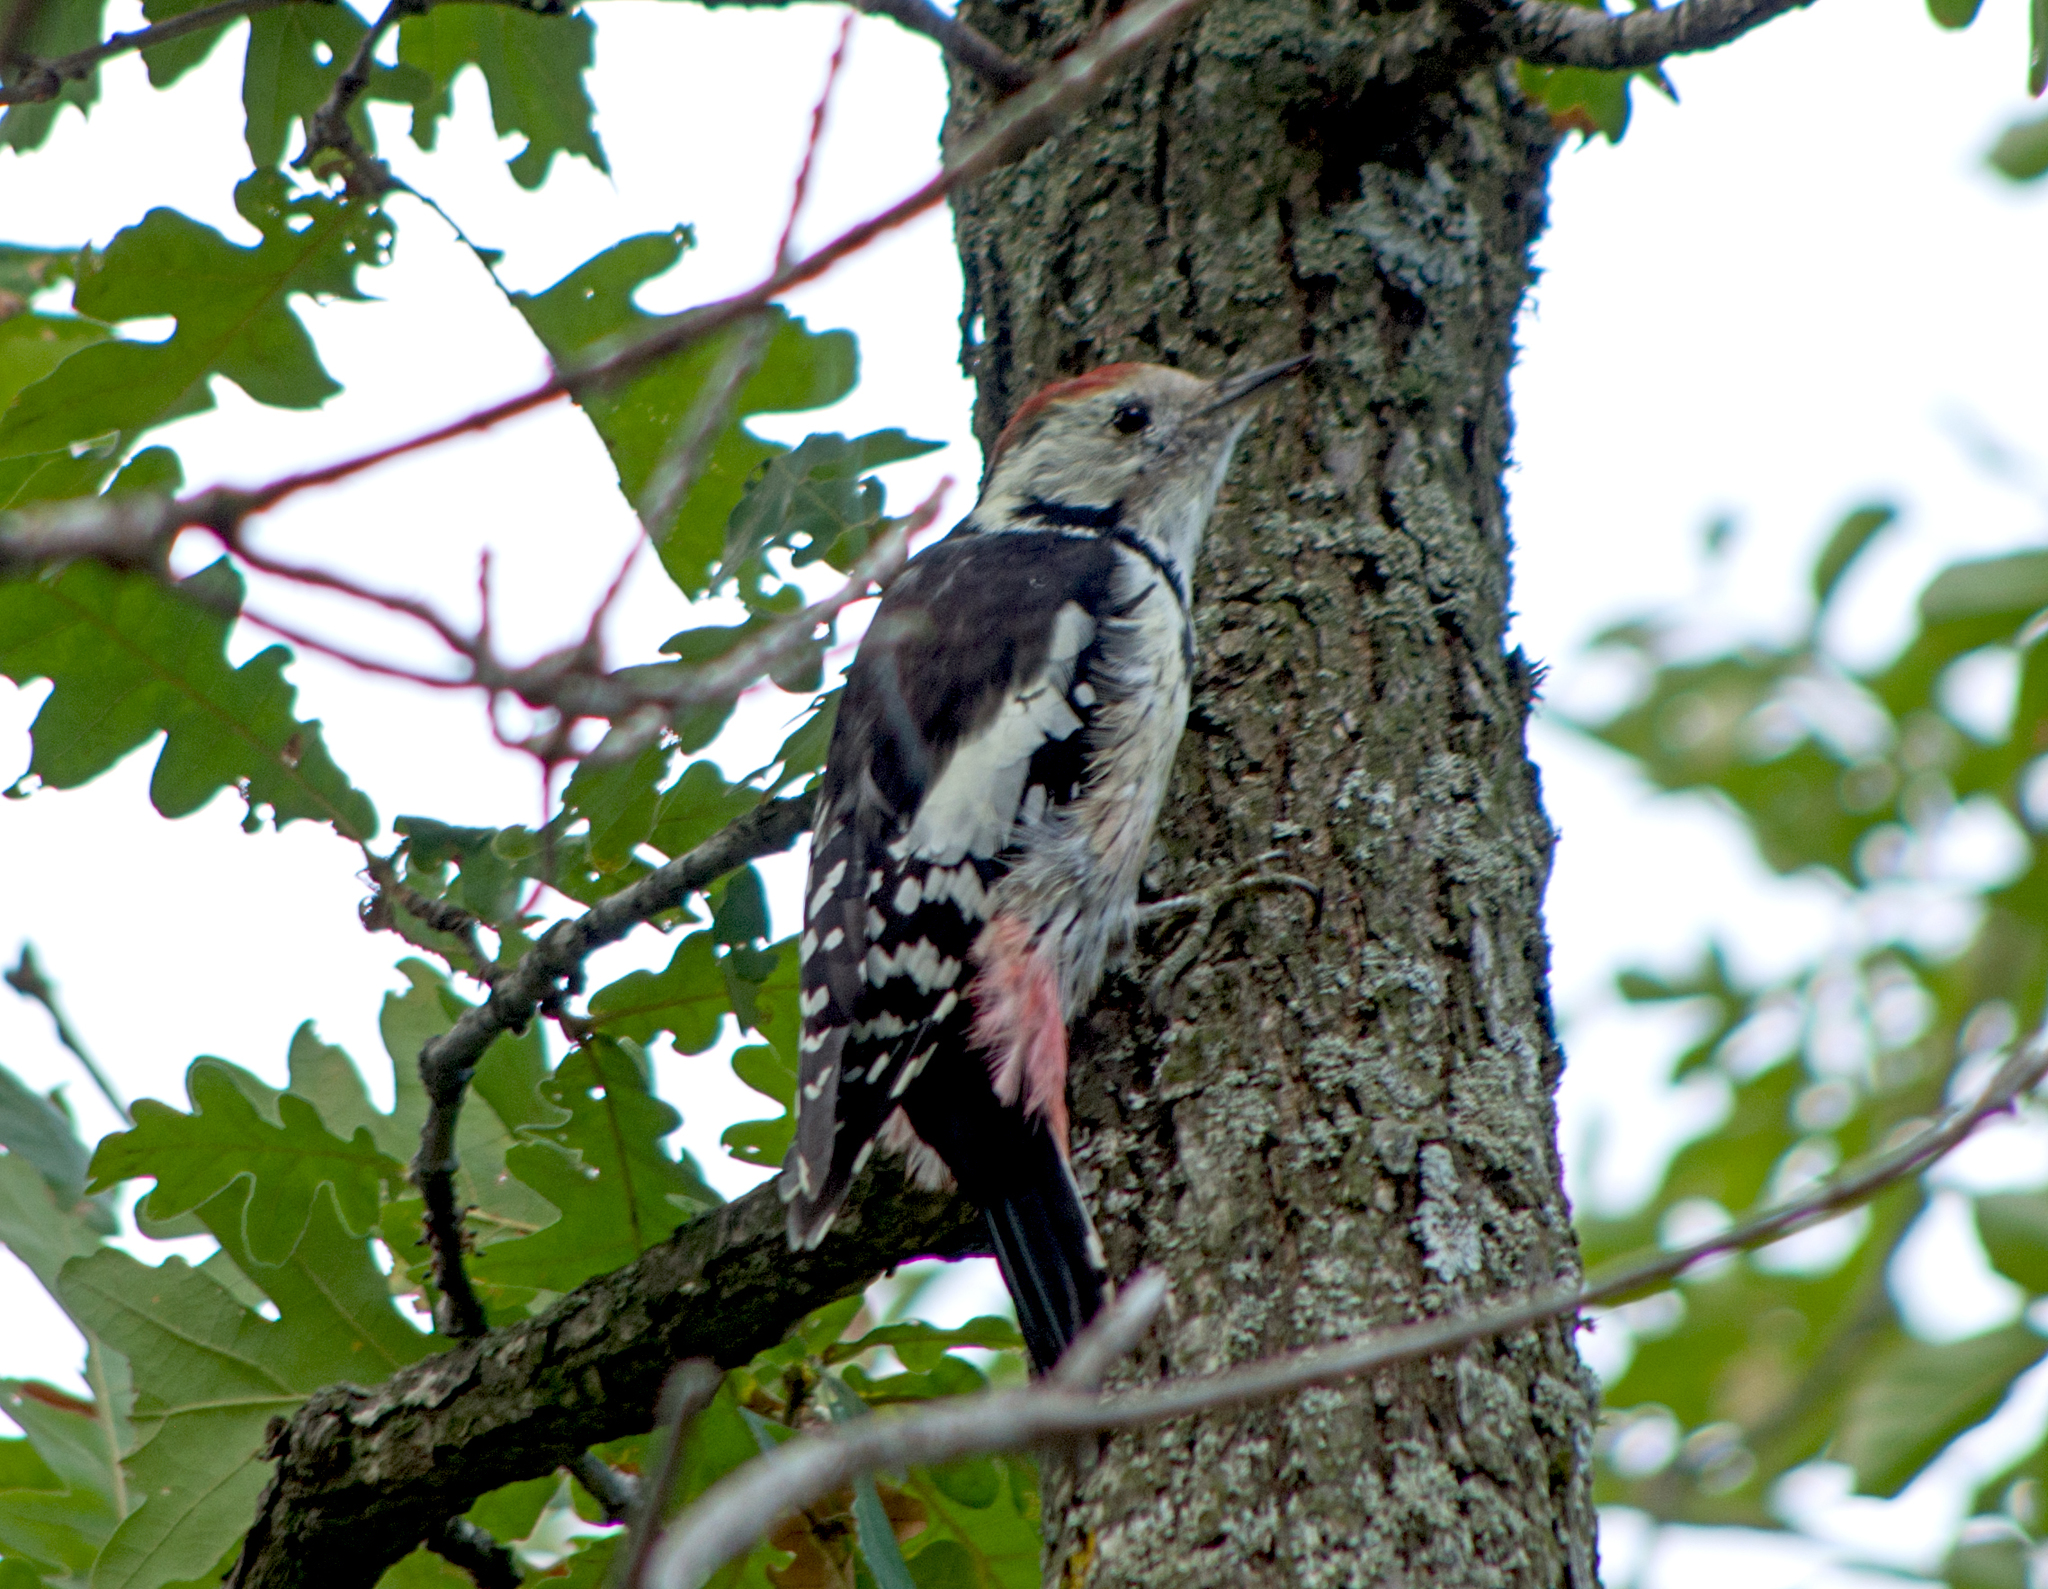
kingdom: Animalia
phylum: Chordata
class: Aves
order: Piciformes
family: Picidae
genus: Dendrocoptes
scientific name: Dendrocoptes medius
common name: Middle spotted woodpecker
